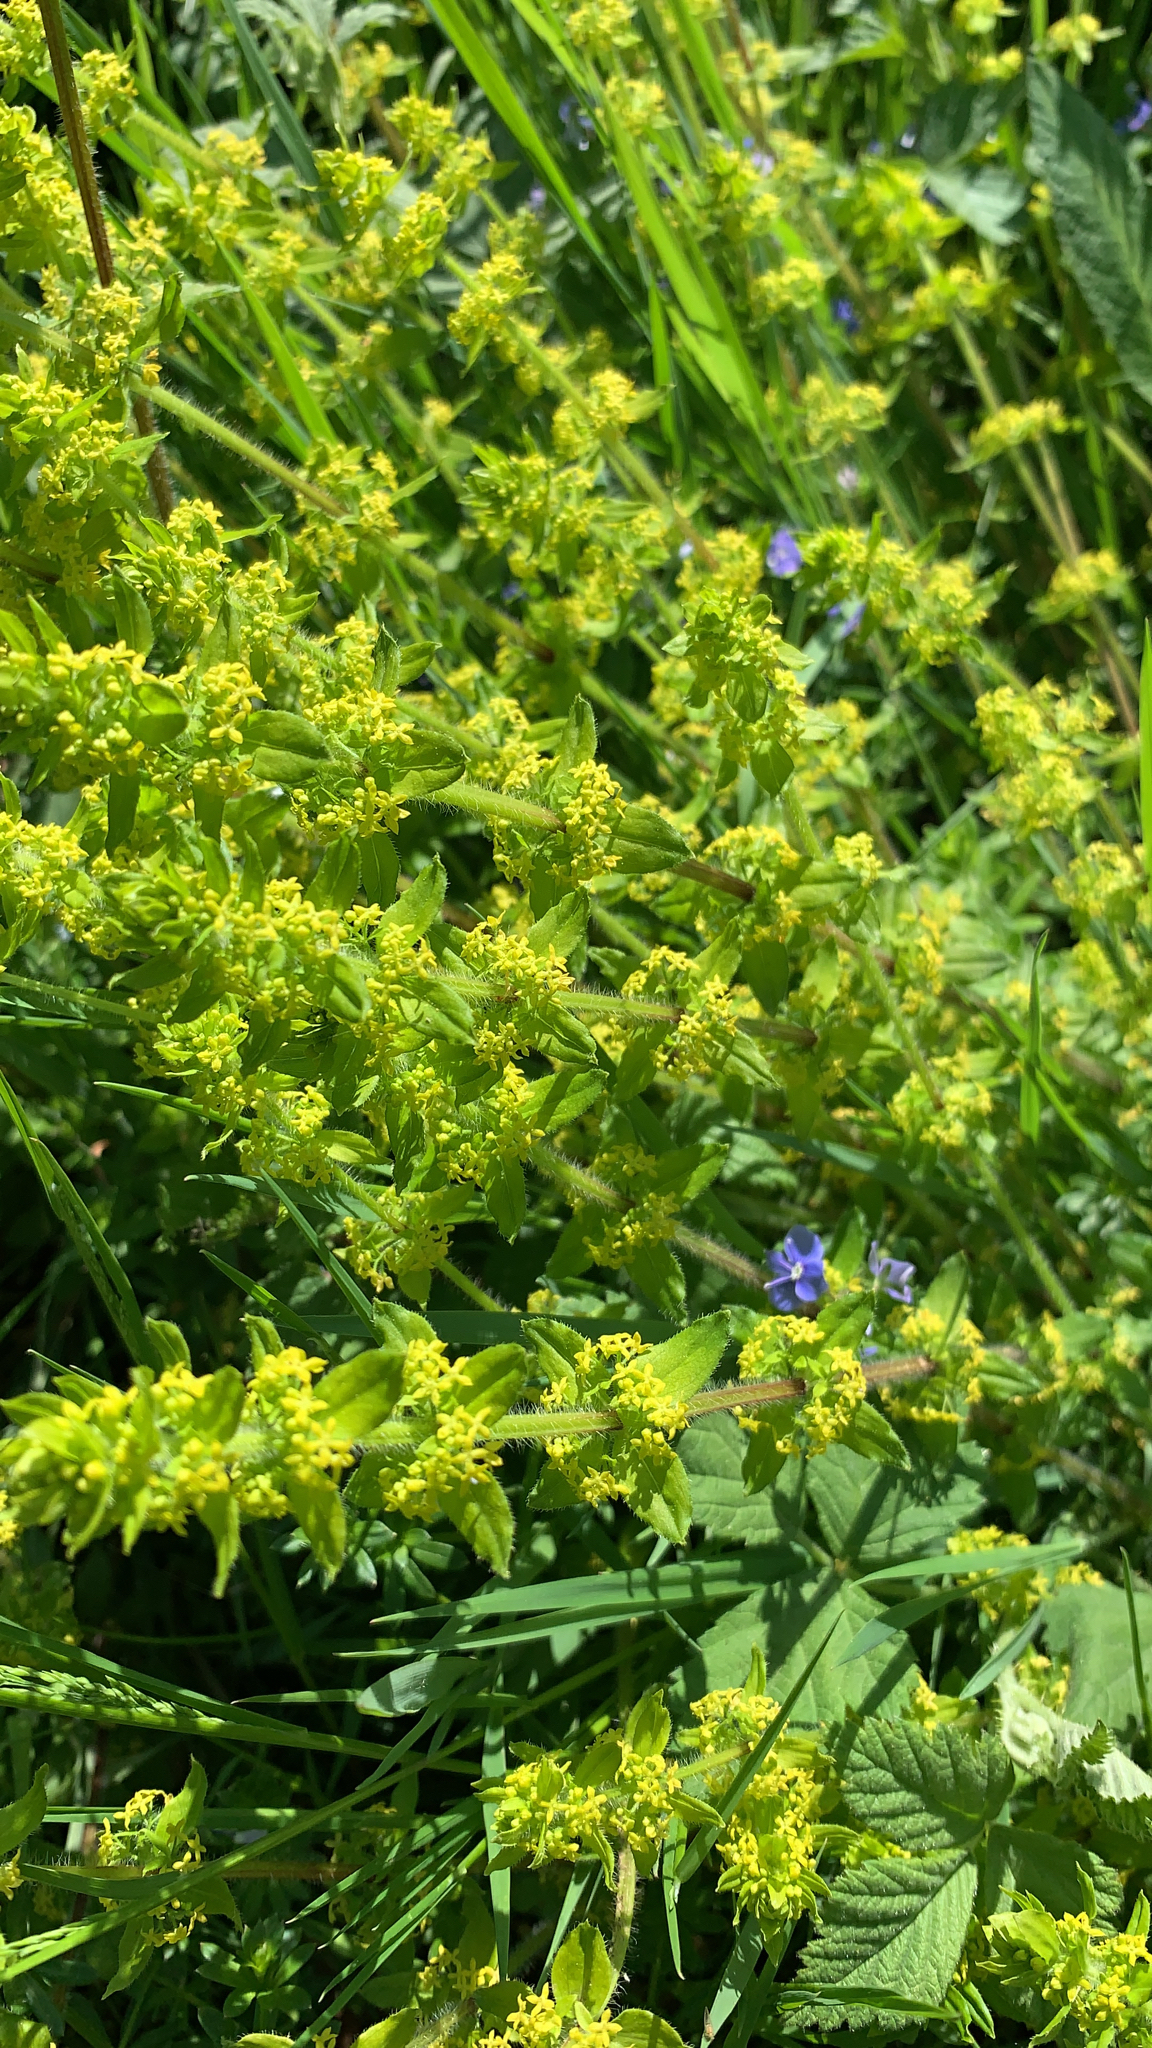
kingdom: Plantae
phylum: Tracheophyta
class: Magnoliopsida
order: Gentianales
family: Rubiaceae
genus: Cruciata
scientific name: Cruciata laevipes
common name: Crosswort
